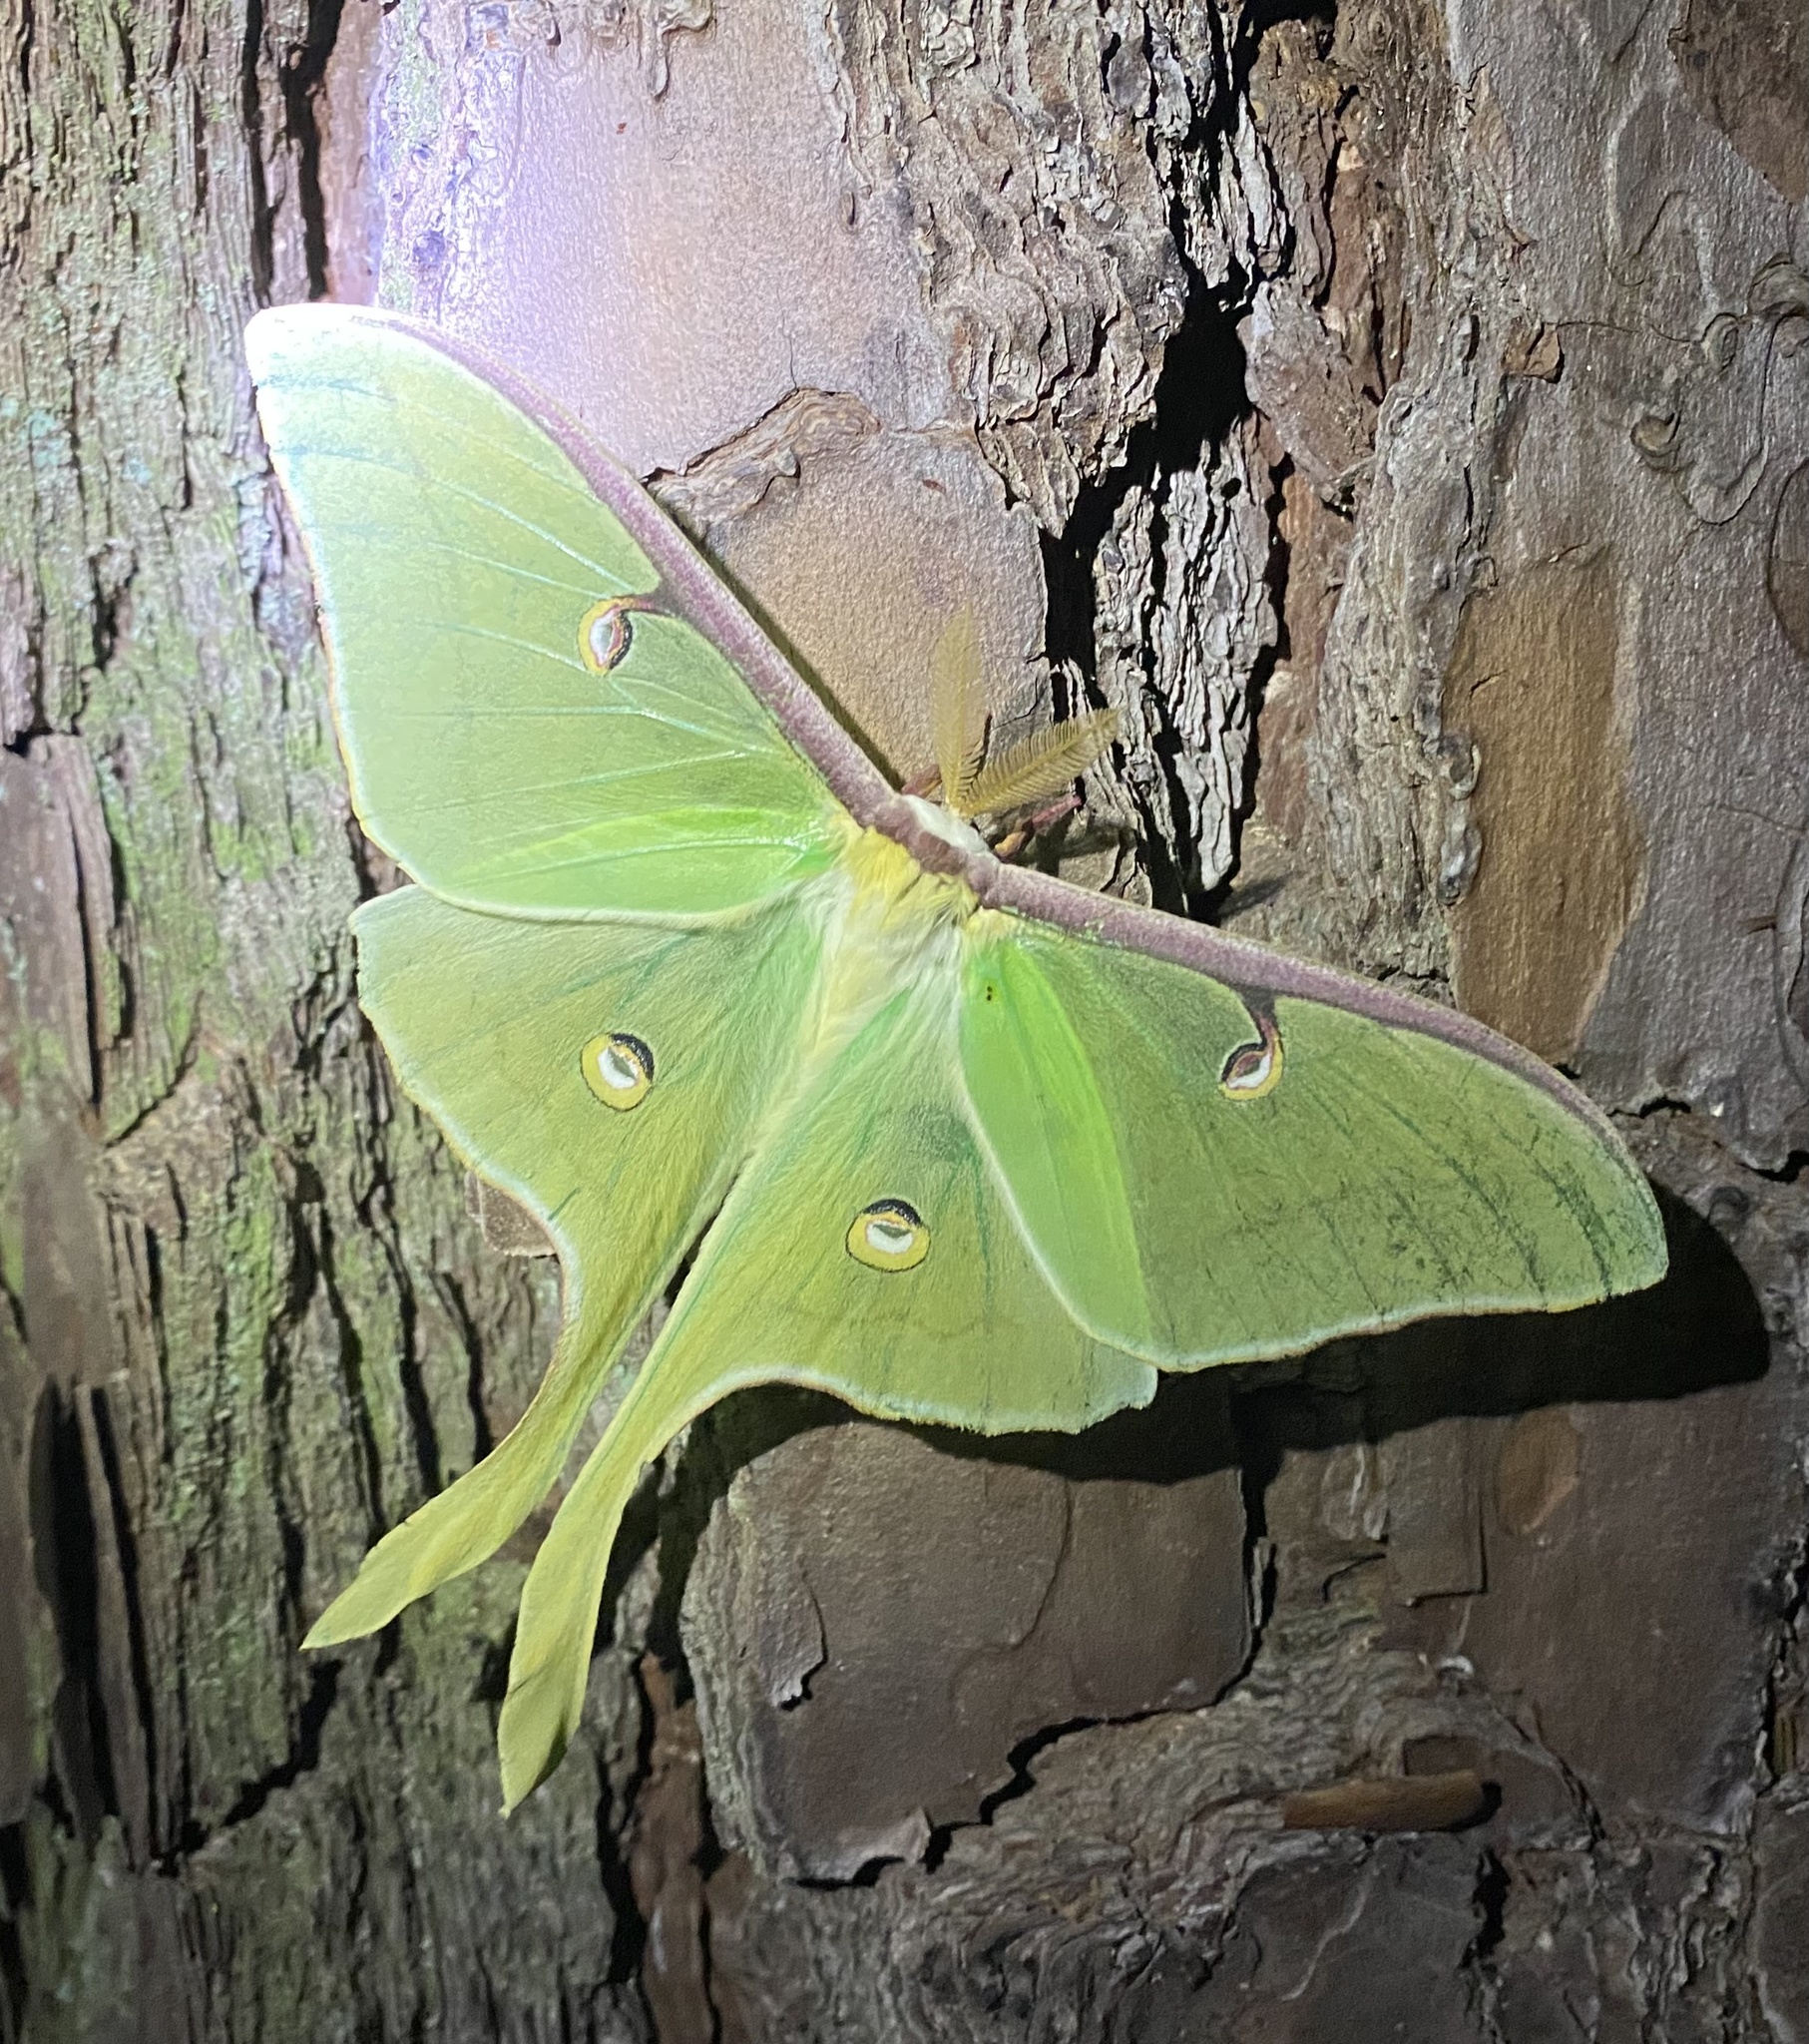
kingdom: Animalia
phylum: Arthropoda
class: Insecta
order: Lepidoptera
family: Saturniidae
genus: Actias
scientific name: Actias luna
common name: Luna moth
